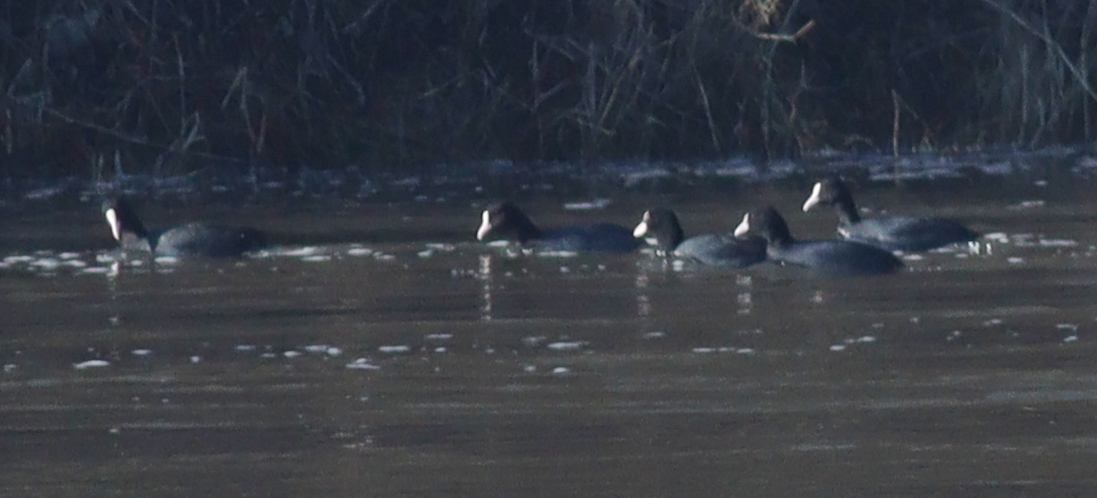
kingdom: Animalia
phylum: Chordata
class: Aves
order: Gruiformes
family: Rallidae
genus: Fulica
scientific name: Fulica atra
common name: Eurasian coot
